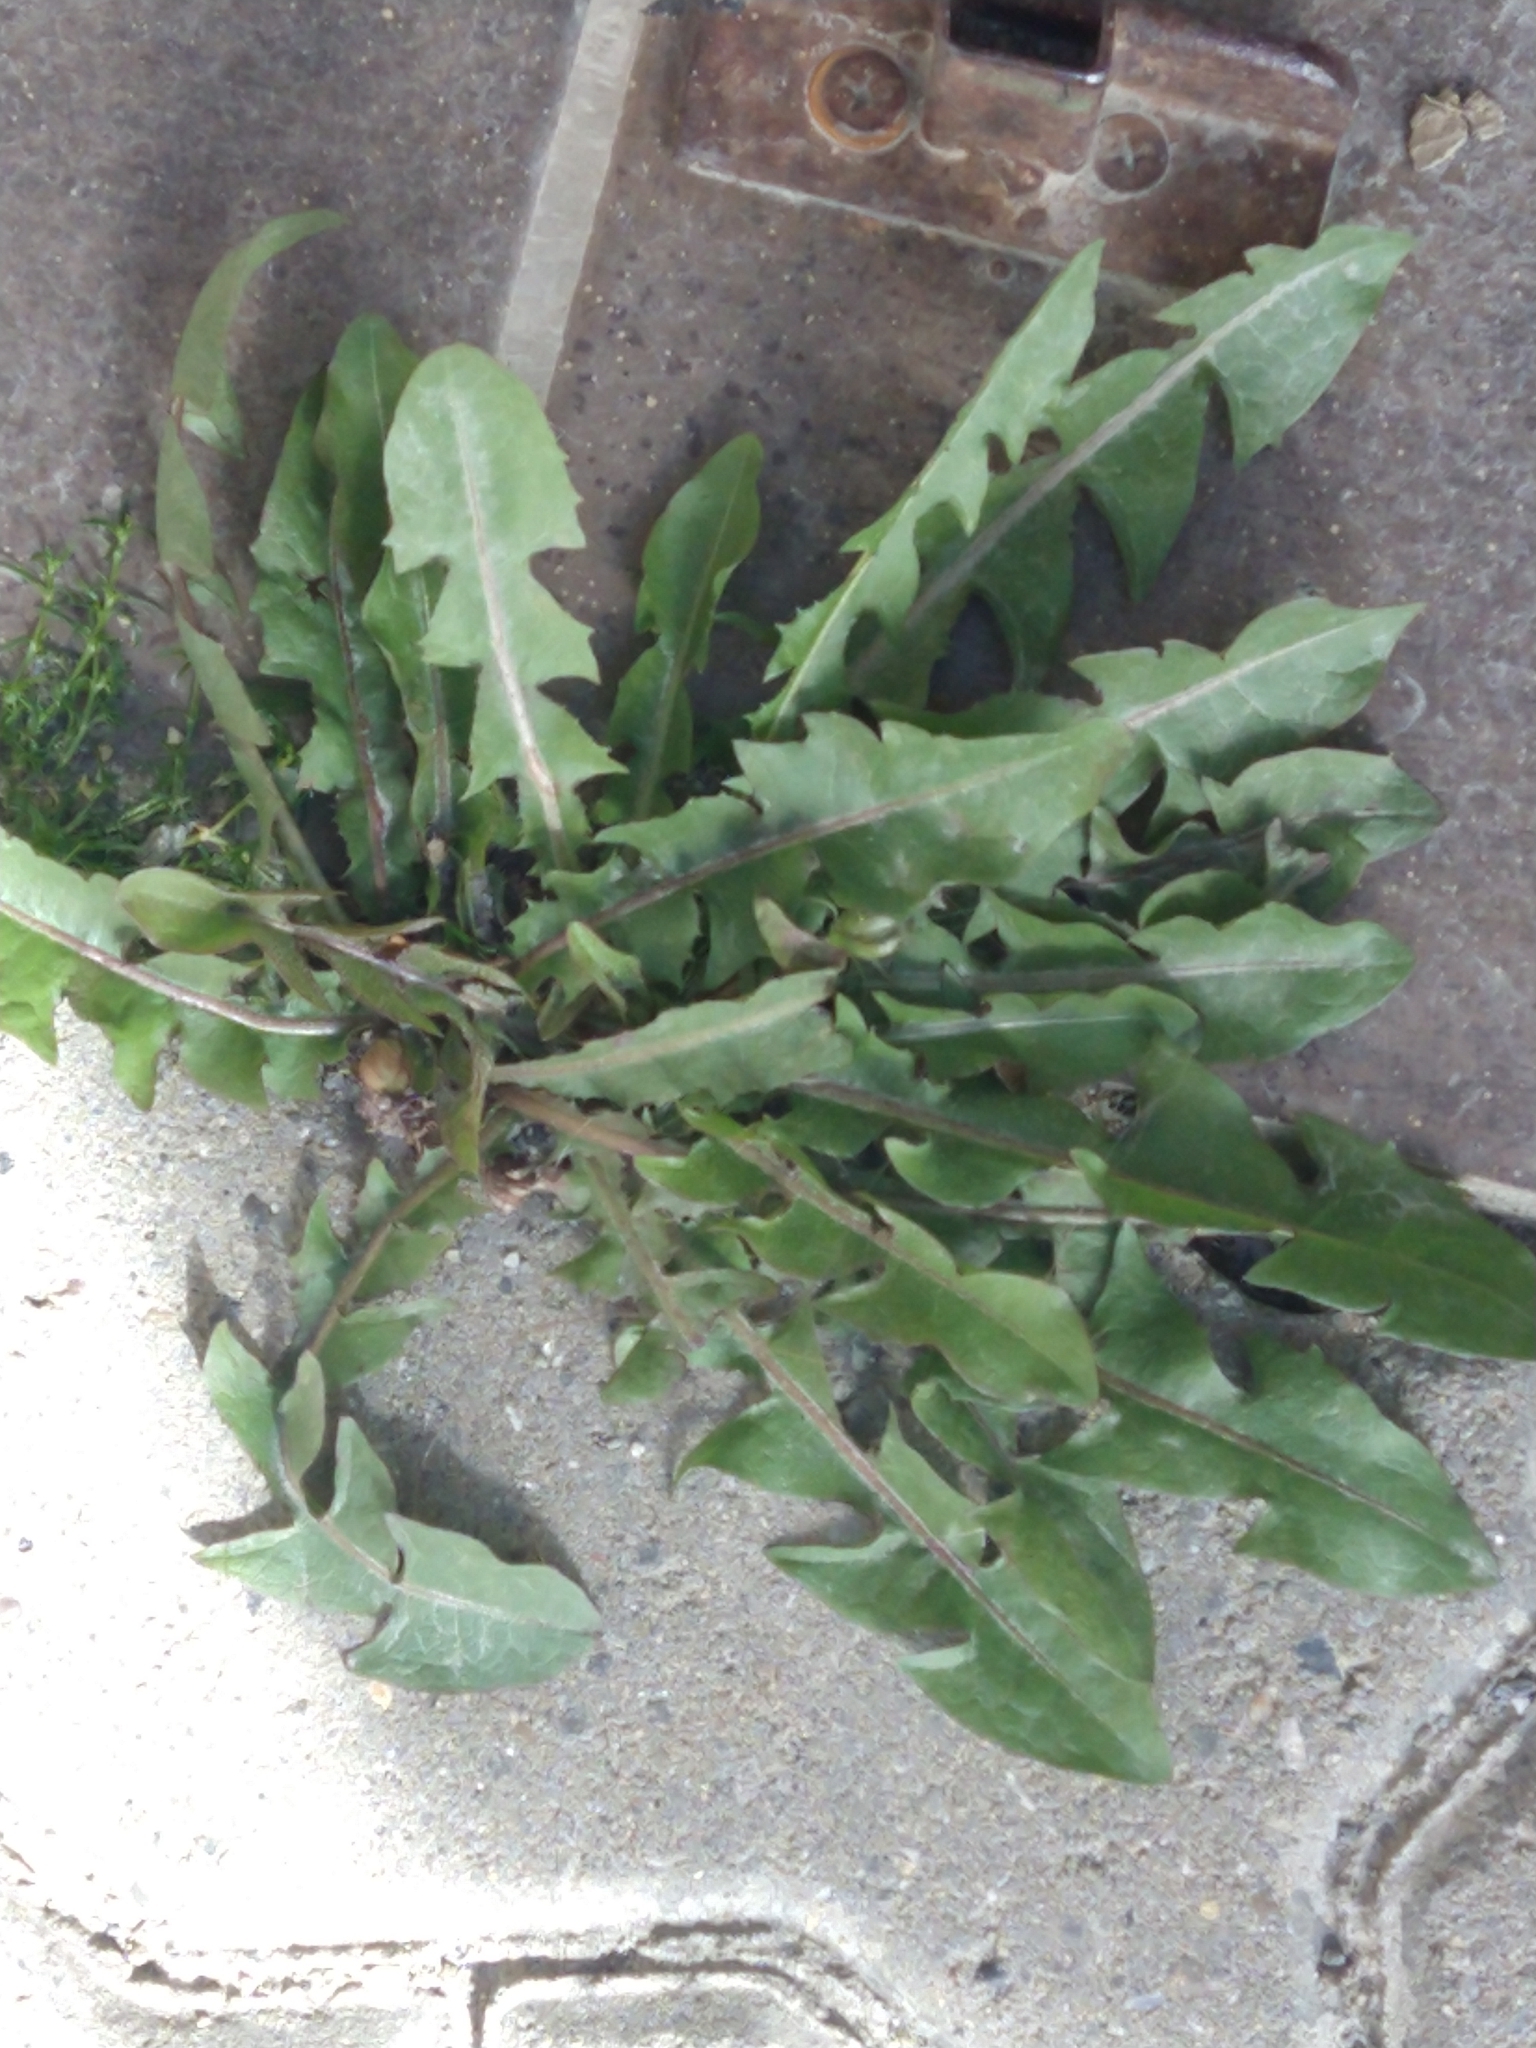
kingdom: Plantae
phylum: Tracheophyta
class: Magnoliopsida
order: Asterales
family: Asteraceae
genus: Taraxacum
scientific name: Taraxacum officinale
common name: Common dandelion
